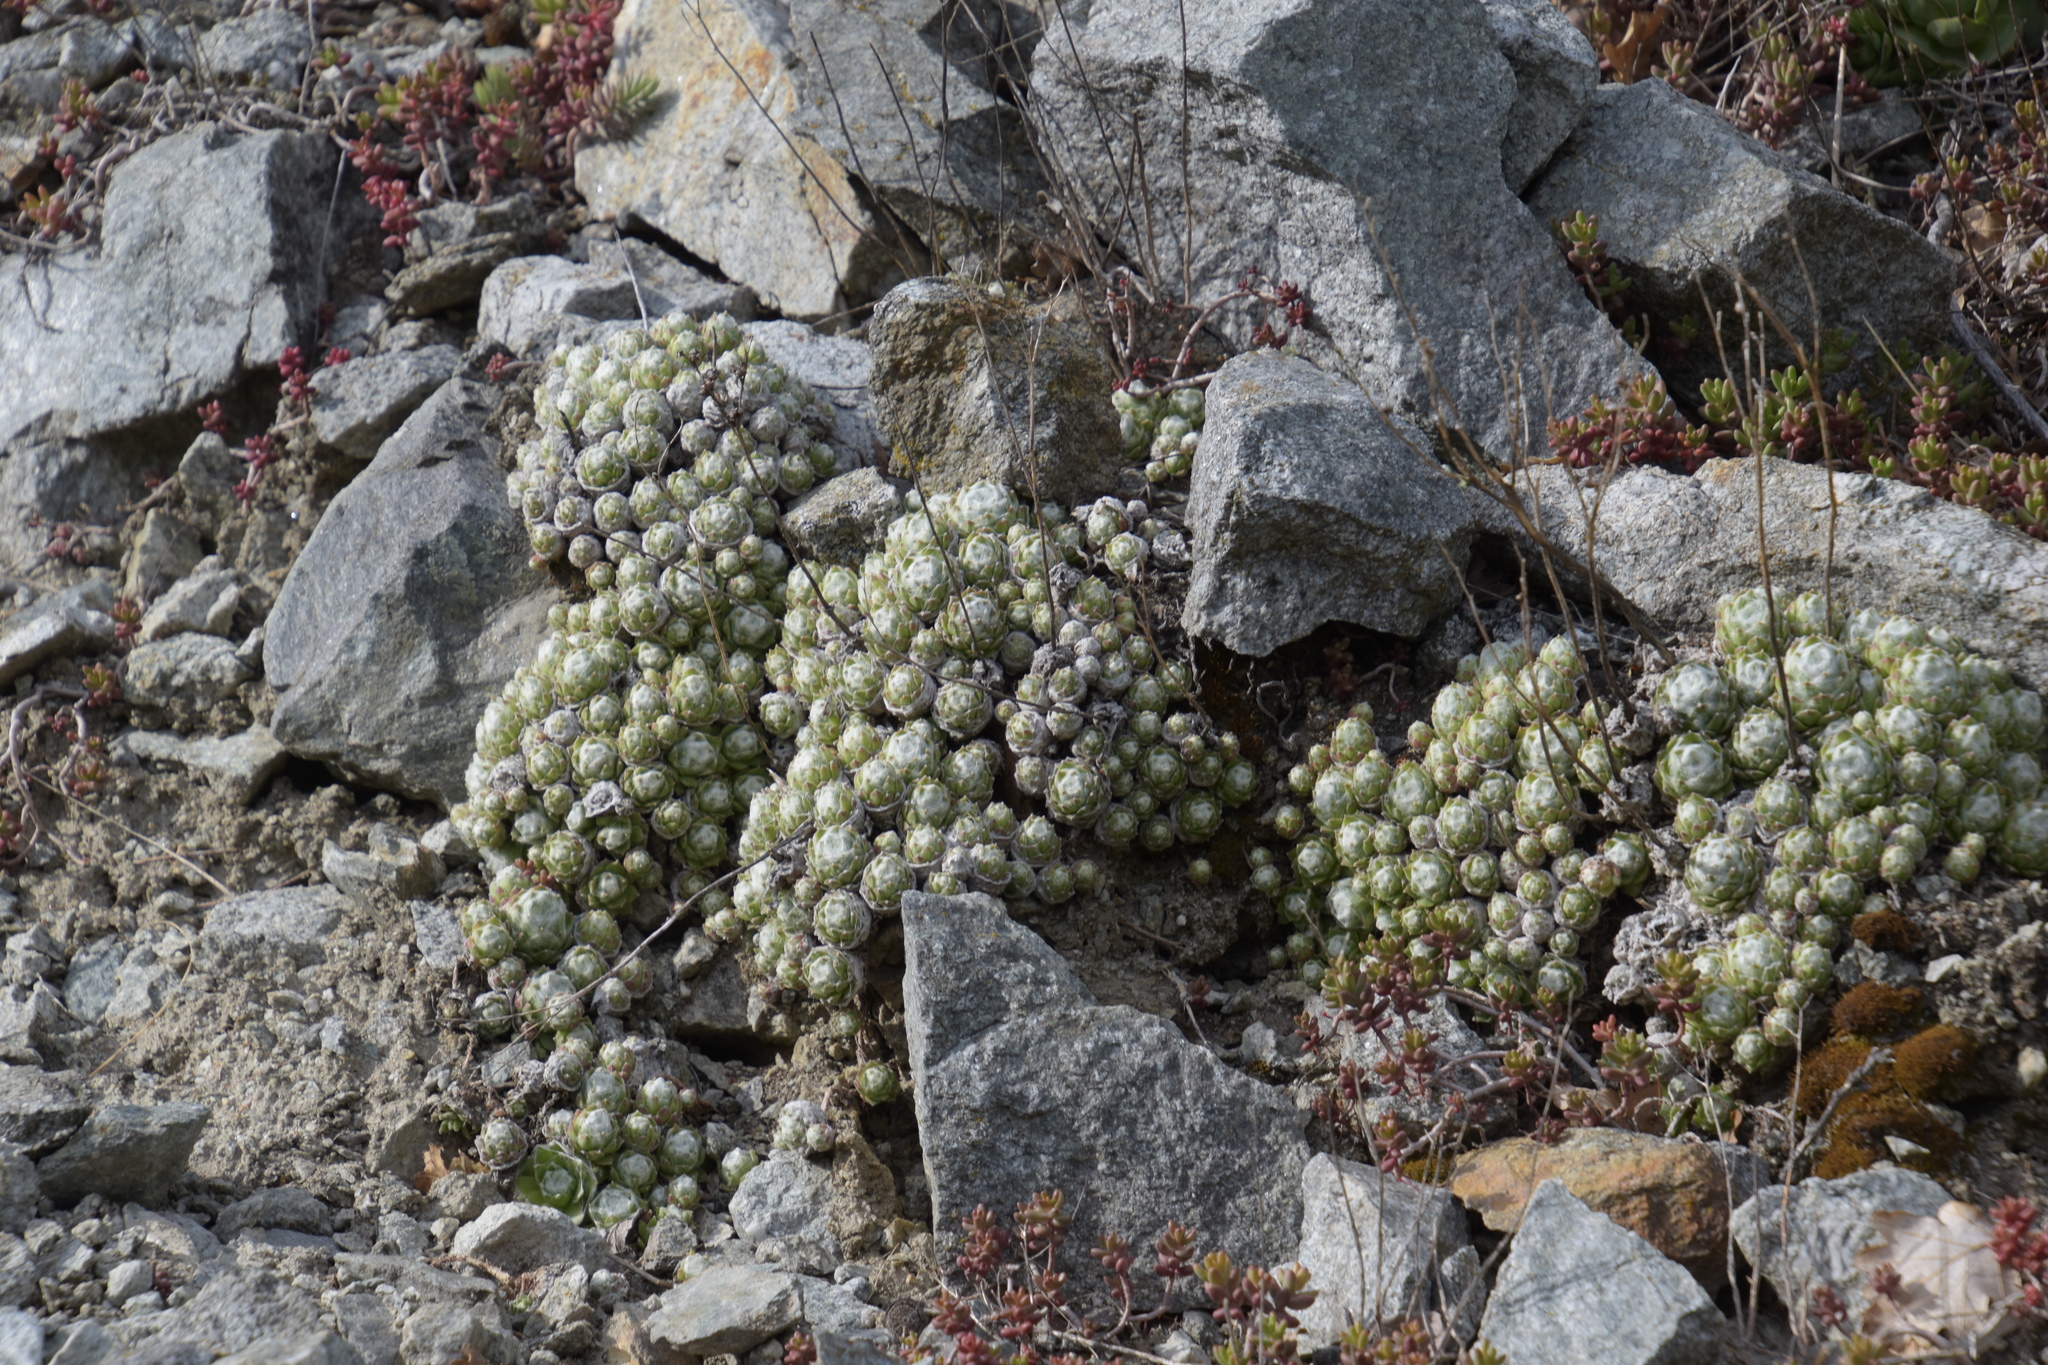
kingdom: Plantae
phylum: Tracheophyta
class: Magnoliopsida
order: Saxifragales
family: Crassulaceae
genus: Sempervivum
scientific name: Sempervivum arachnoideum
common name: Cobweb house-leek
